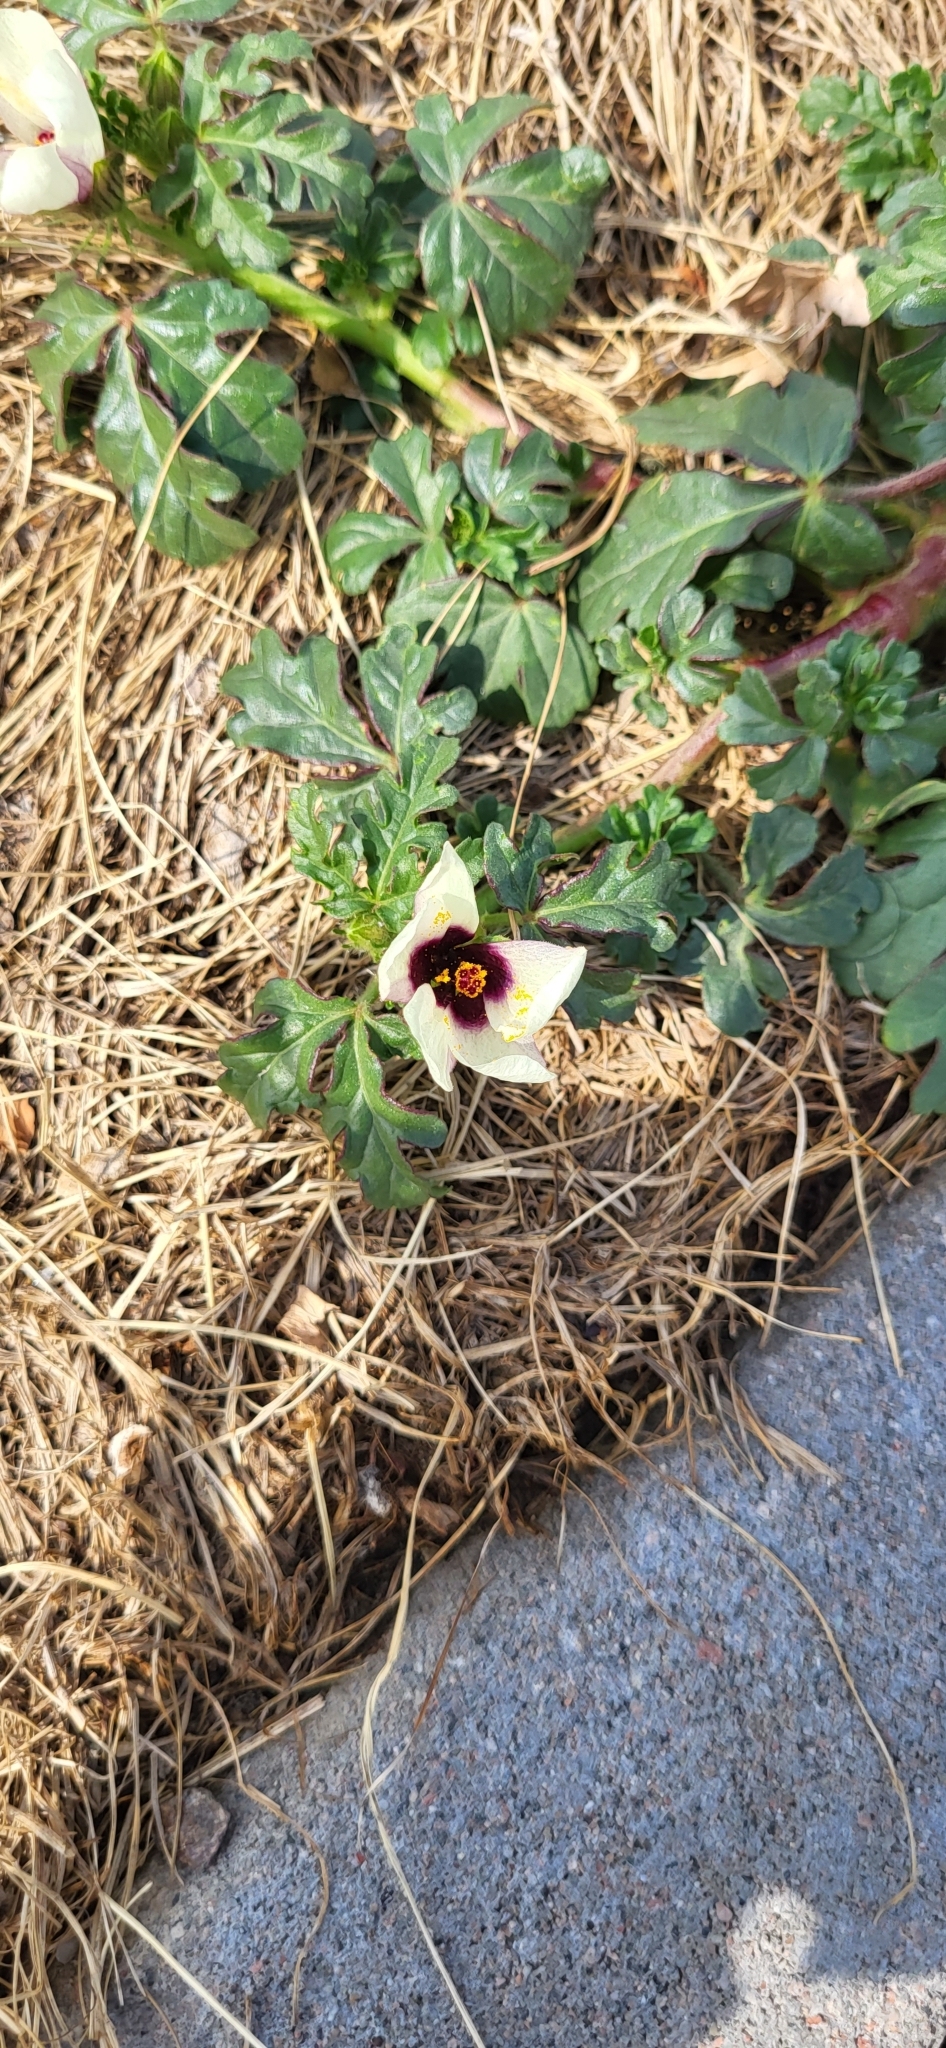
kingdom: Plantae
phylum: Tracheophyta
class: Magnoliopsida
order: Malvales
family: Malvaceae
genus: Hibiscus
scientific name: Hibiscus trionum
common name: Bladder ketmia
